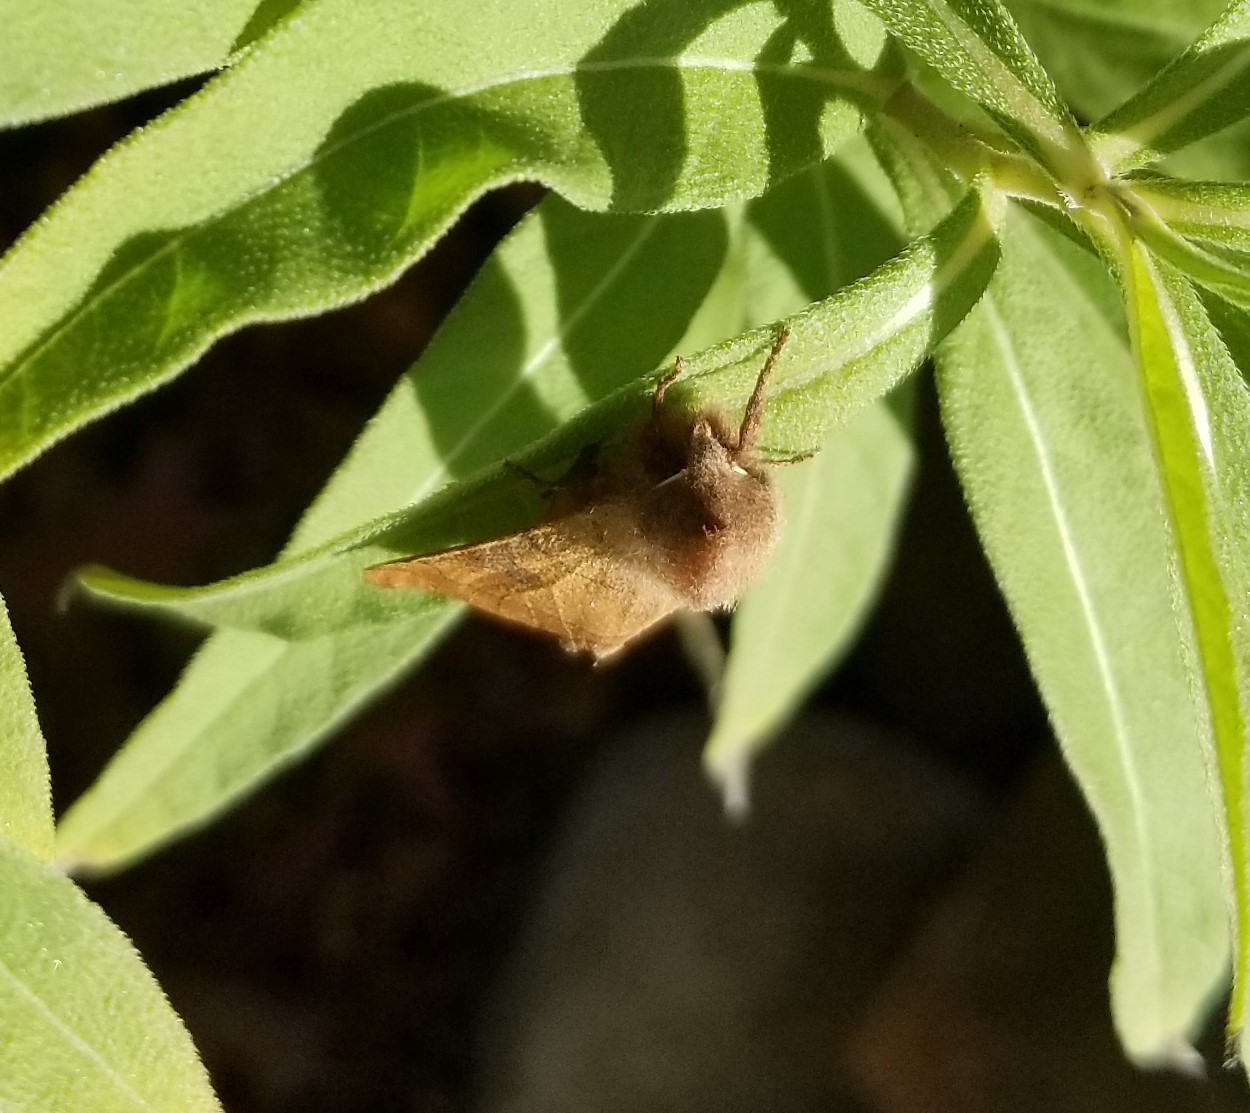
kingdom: Animalia
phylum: Arthropoda
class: Insecta
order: Lepidoptera
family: Noctuidae
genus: Choephora
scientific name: Choephora fungorum
